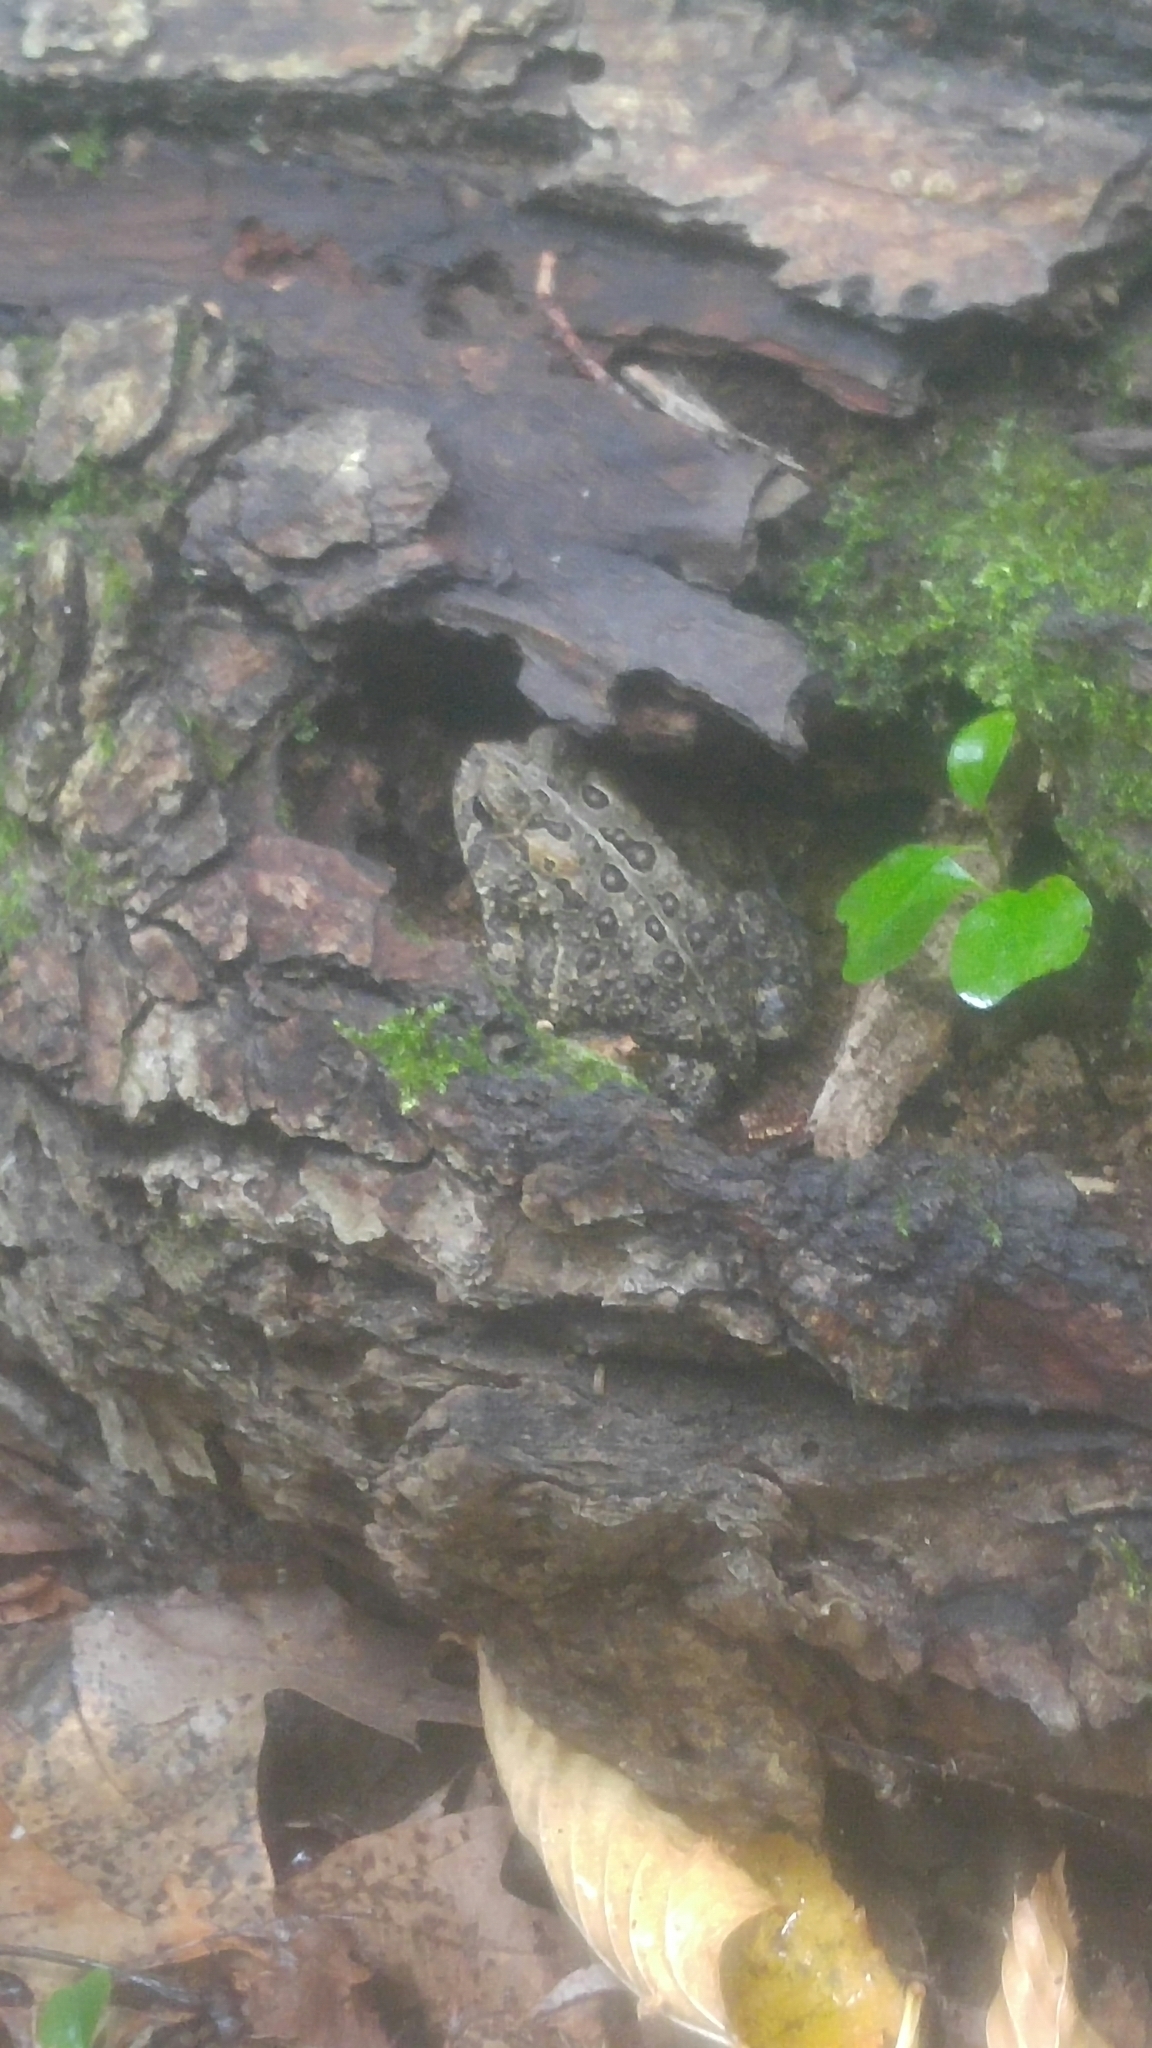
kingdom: Animalia
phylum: Chordata
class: Amphibia
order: Anura
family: Bufonidae
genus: Anaxyrus
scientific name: Anaxyrus americanus
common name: American toad
